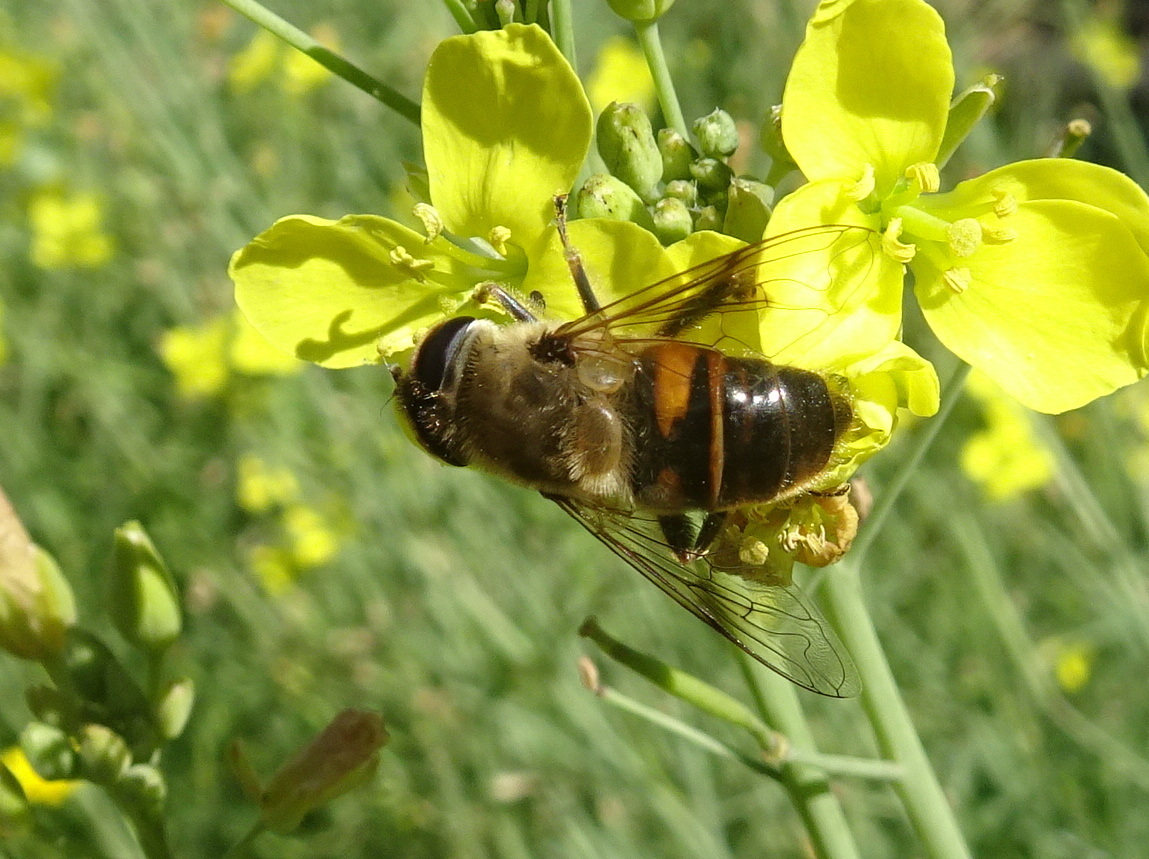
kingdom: Animalia
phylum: Arthropoda
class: Insecta
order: Diptera
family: Syrphidae
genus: Eristalis
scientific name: Eristalis tenax
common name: Drone fly
